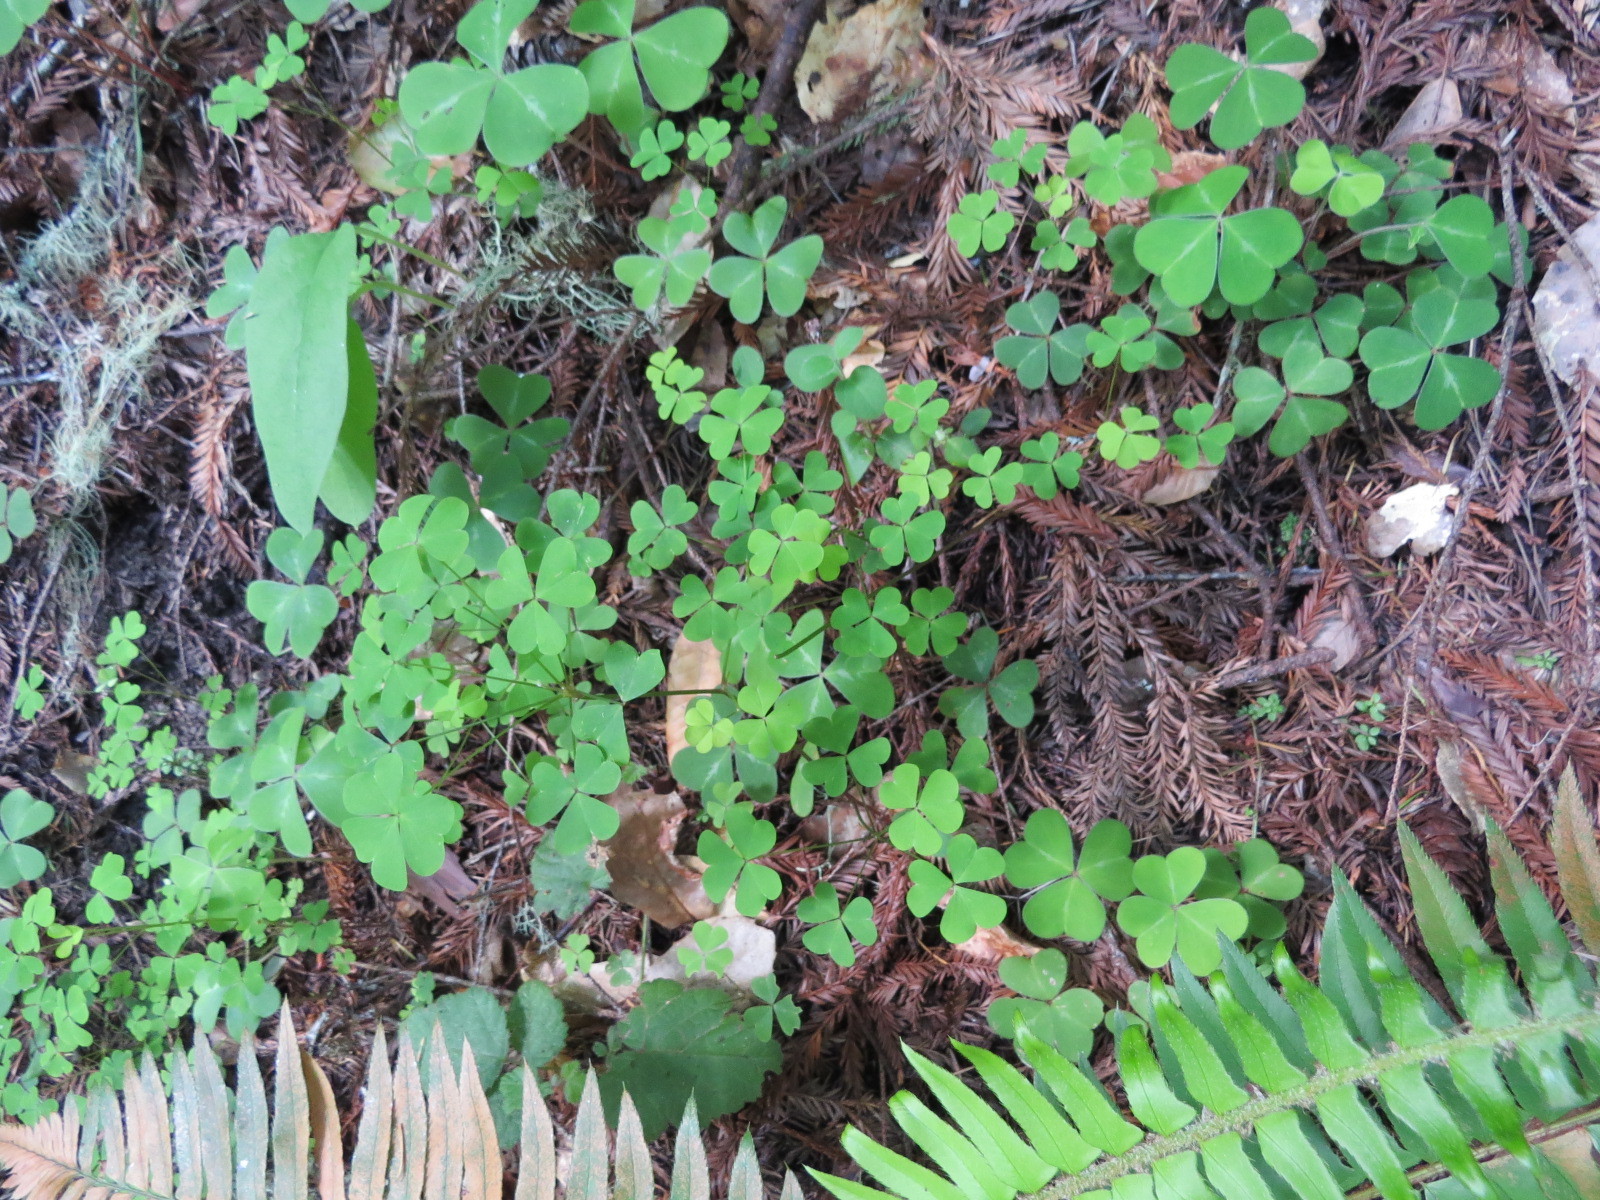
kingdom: Plantae
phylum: Tracheophyta
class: Magnoliopsida
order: Oxalidales
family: Oxalidaceae
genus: Oxalis
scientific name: Oxalis oregana
